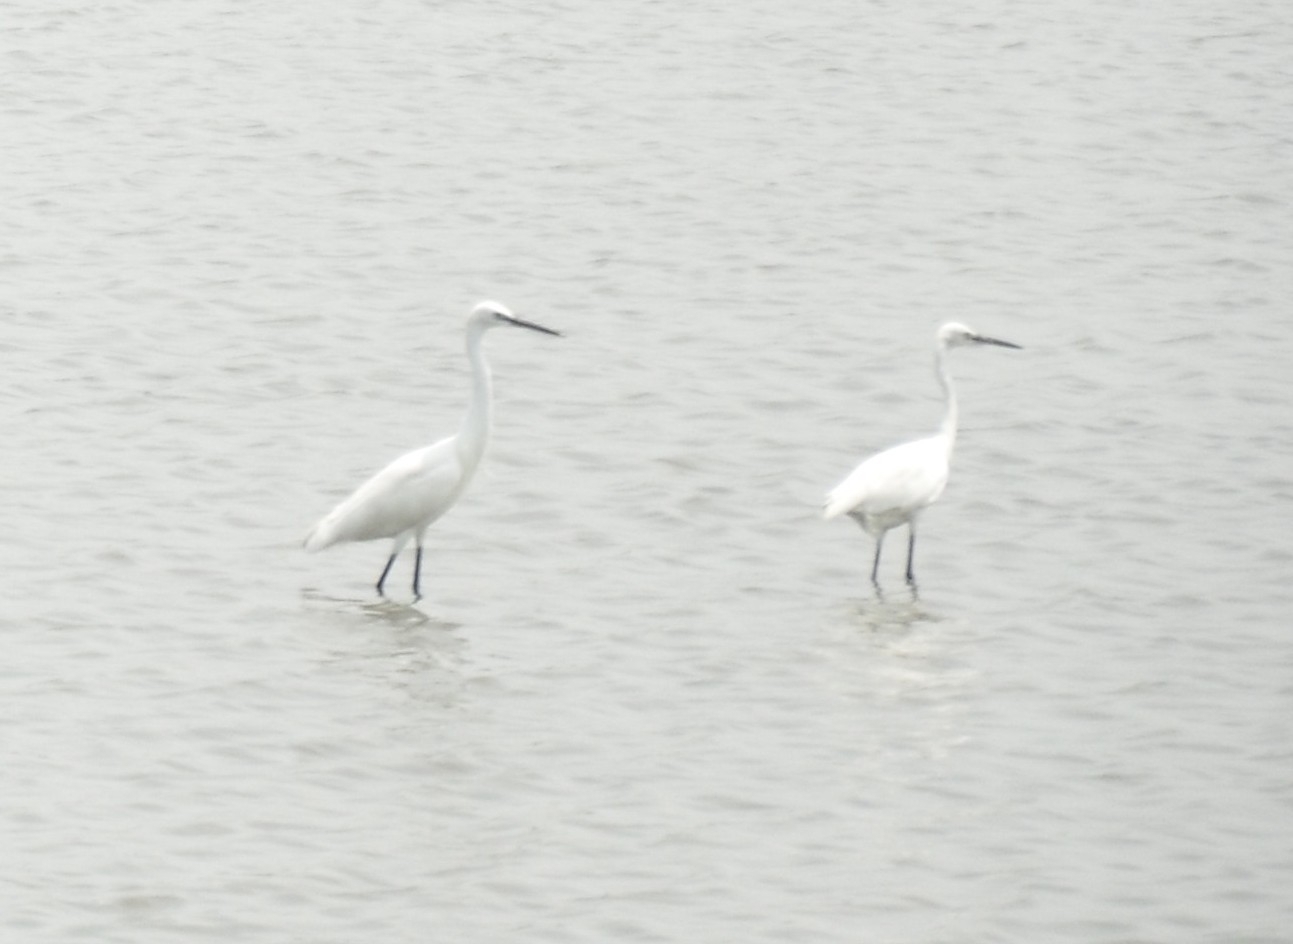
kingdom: Animalia
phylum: Chordata
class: Aves
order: Pelecaniformes
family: Ardeidae
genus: Egretta
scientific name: Egretta garzetta
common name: Little egret
